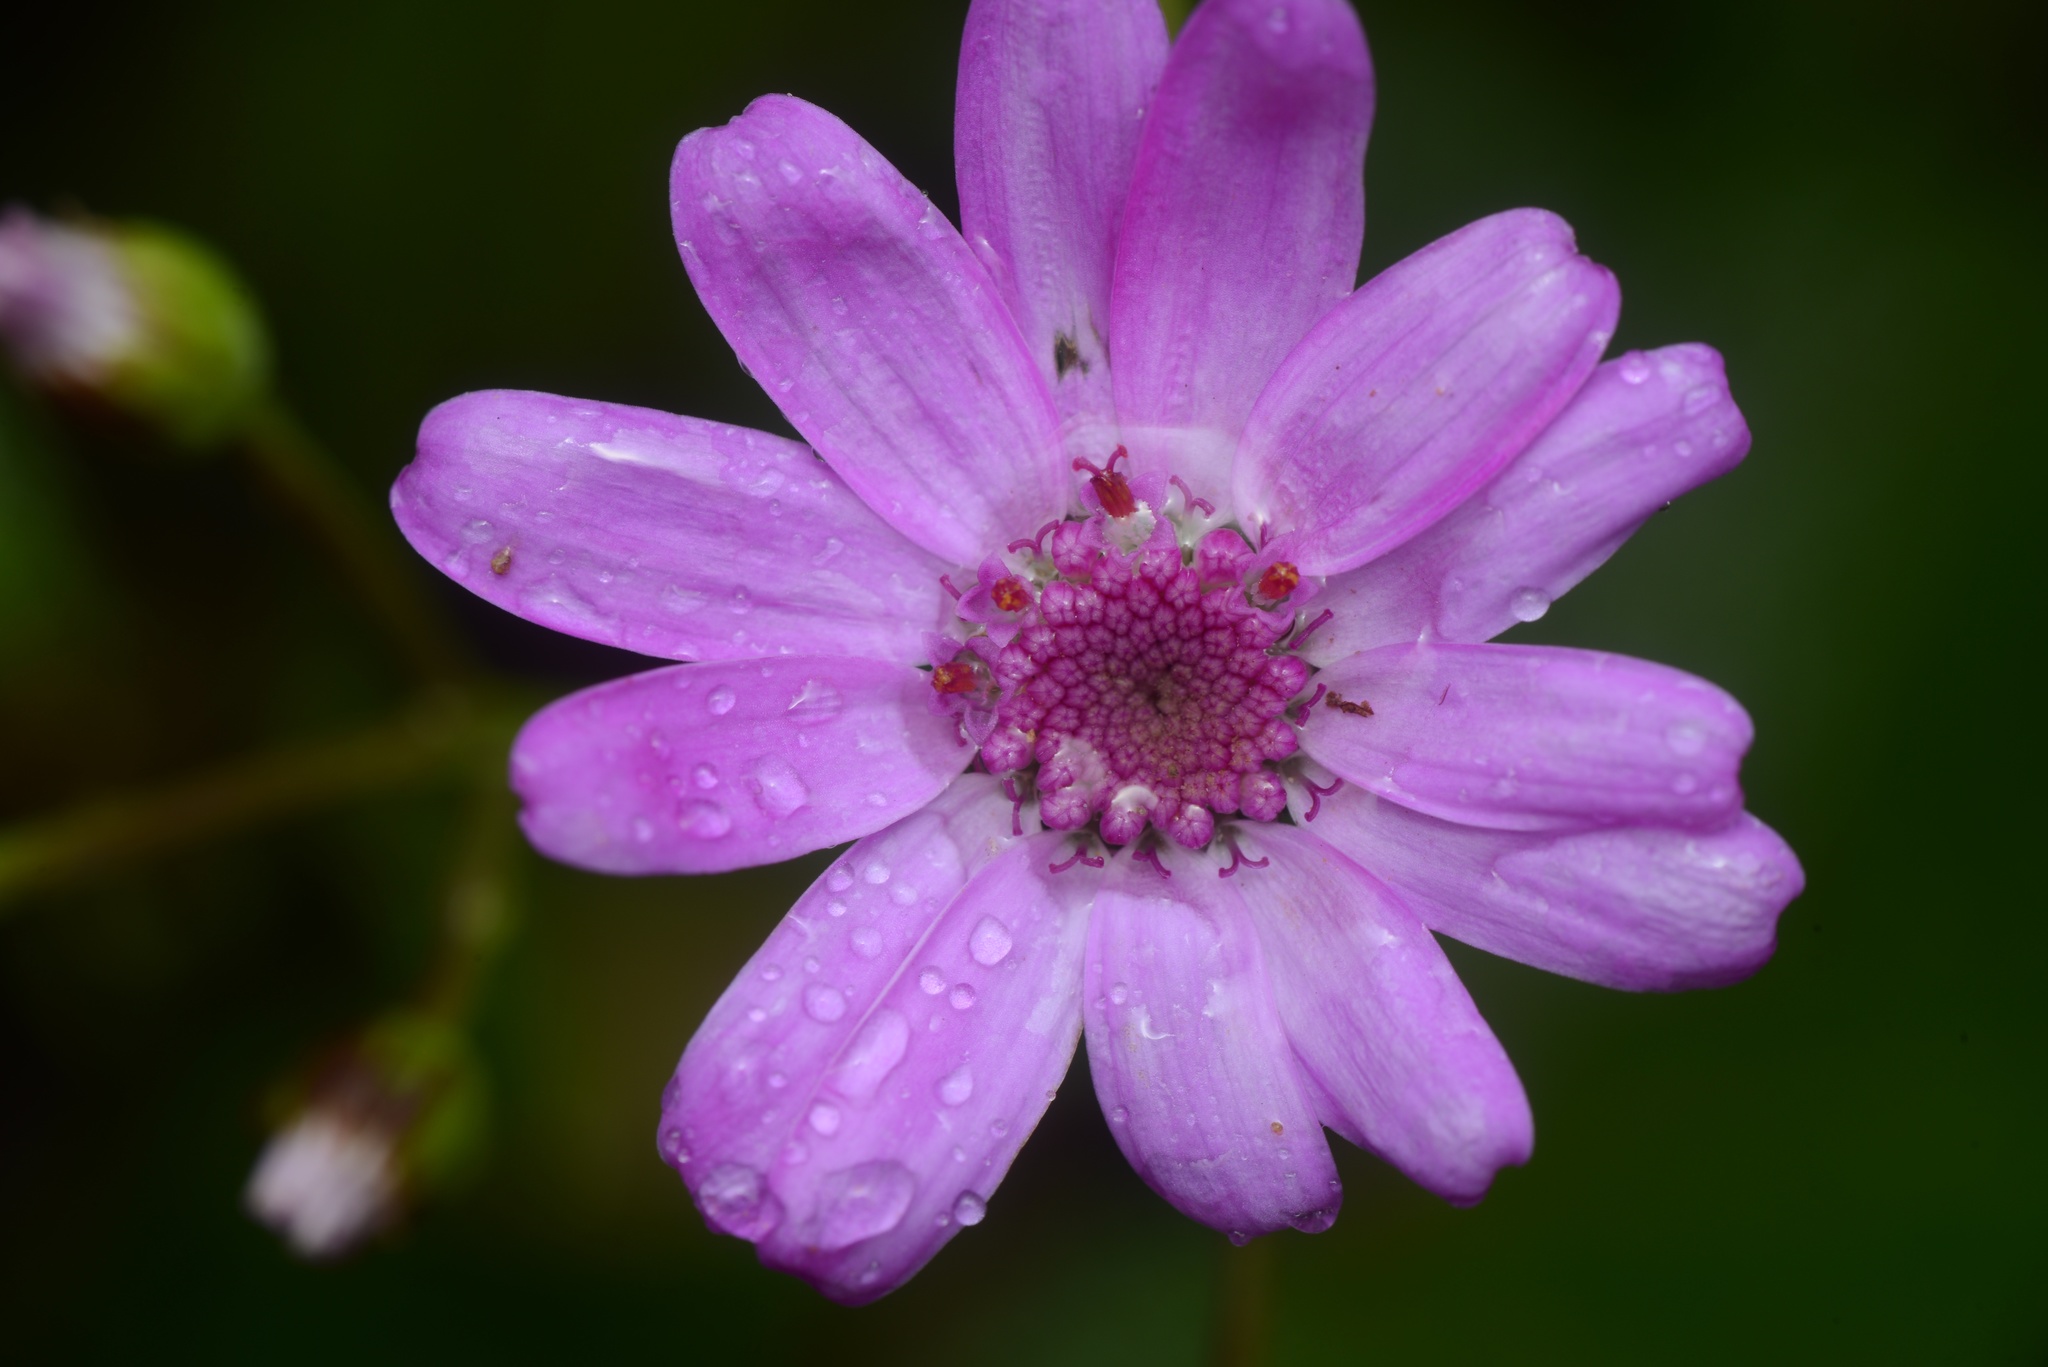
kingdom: Plantae
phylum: Tracheophyta
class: Magnoliopsida
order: Asterales
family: Asteraceae
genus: Pericallis
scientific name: Pericallis hybrida
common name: Cineraria
